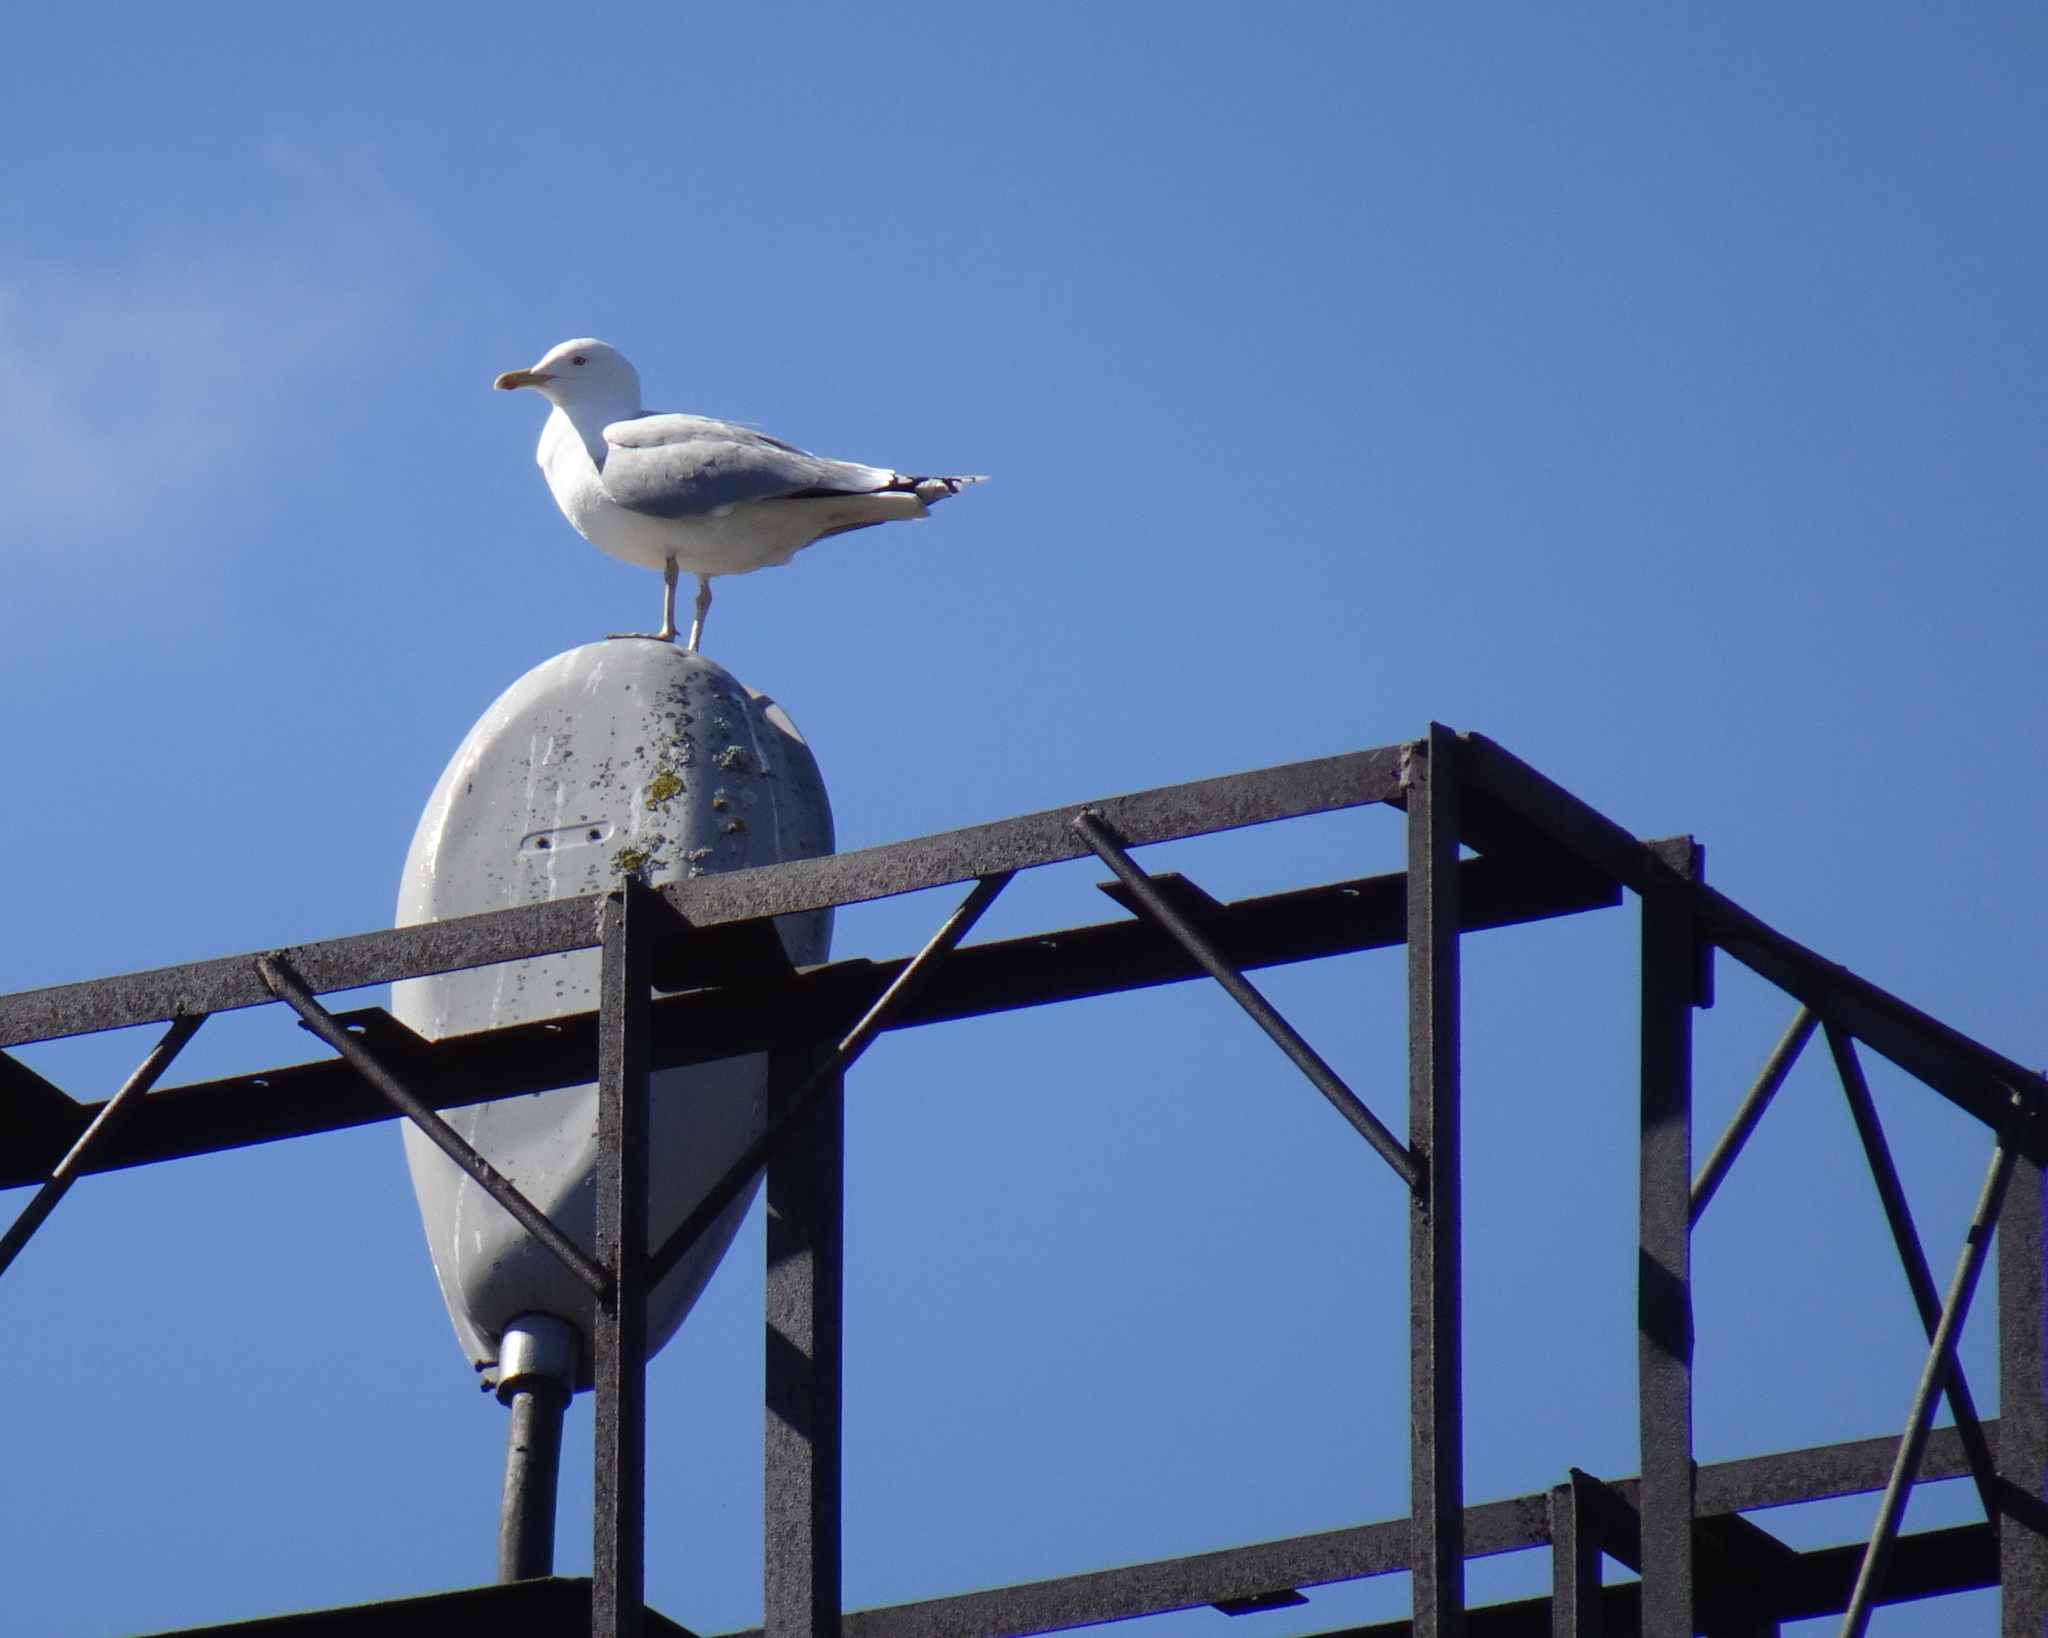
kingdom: Animalia
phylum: Chordata
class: Aves
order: Charadriiformes
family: Laridae
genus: Larus
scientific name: Larus argentatus
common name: Herring gull
